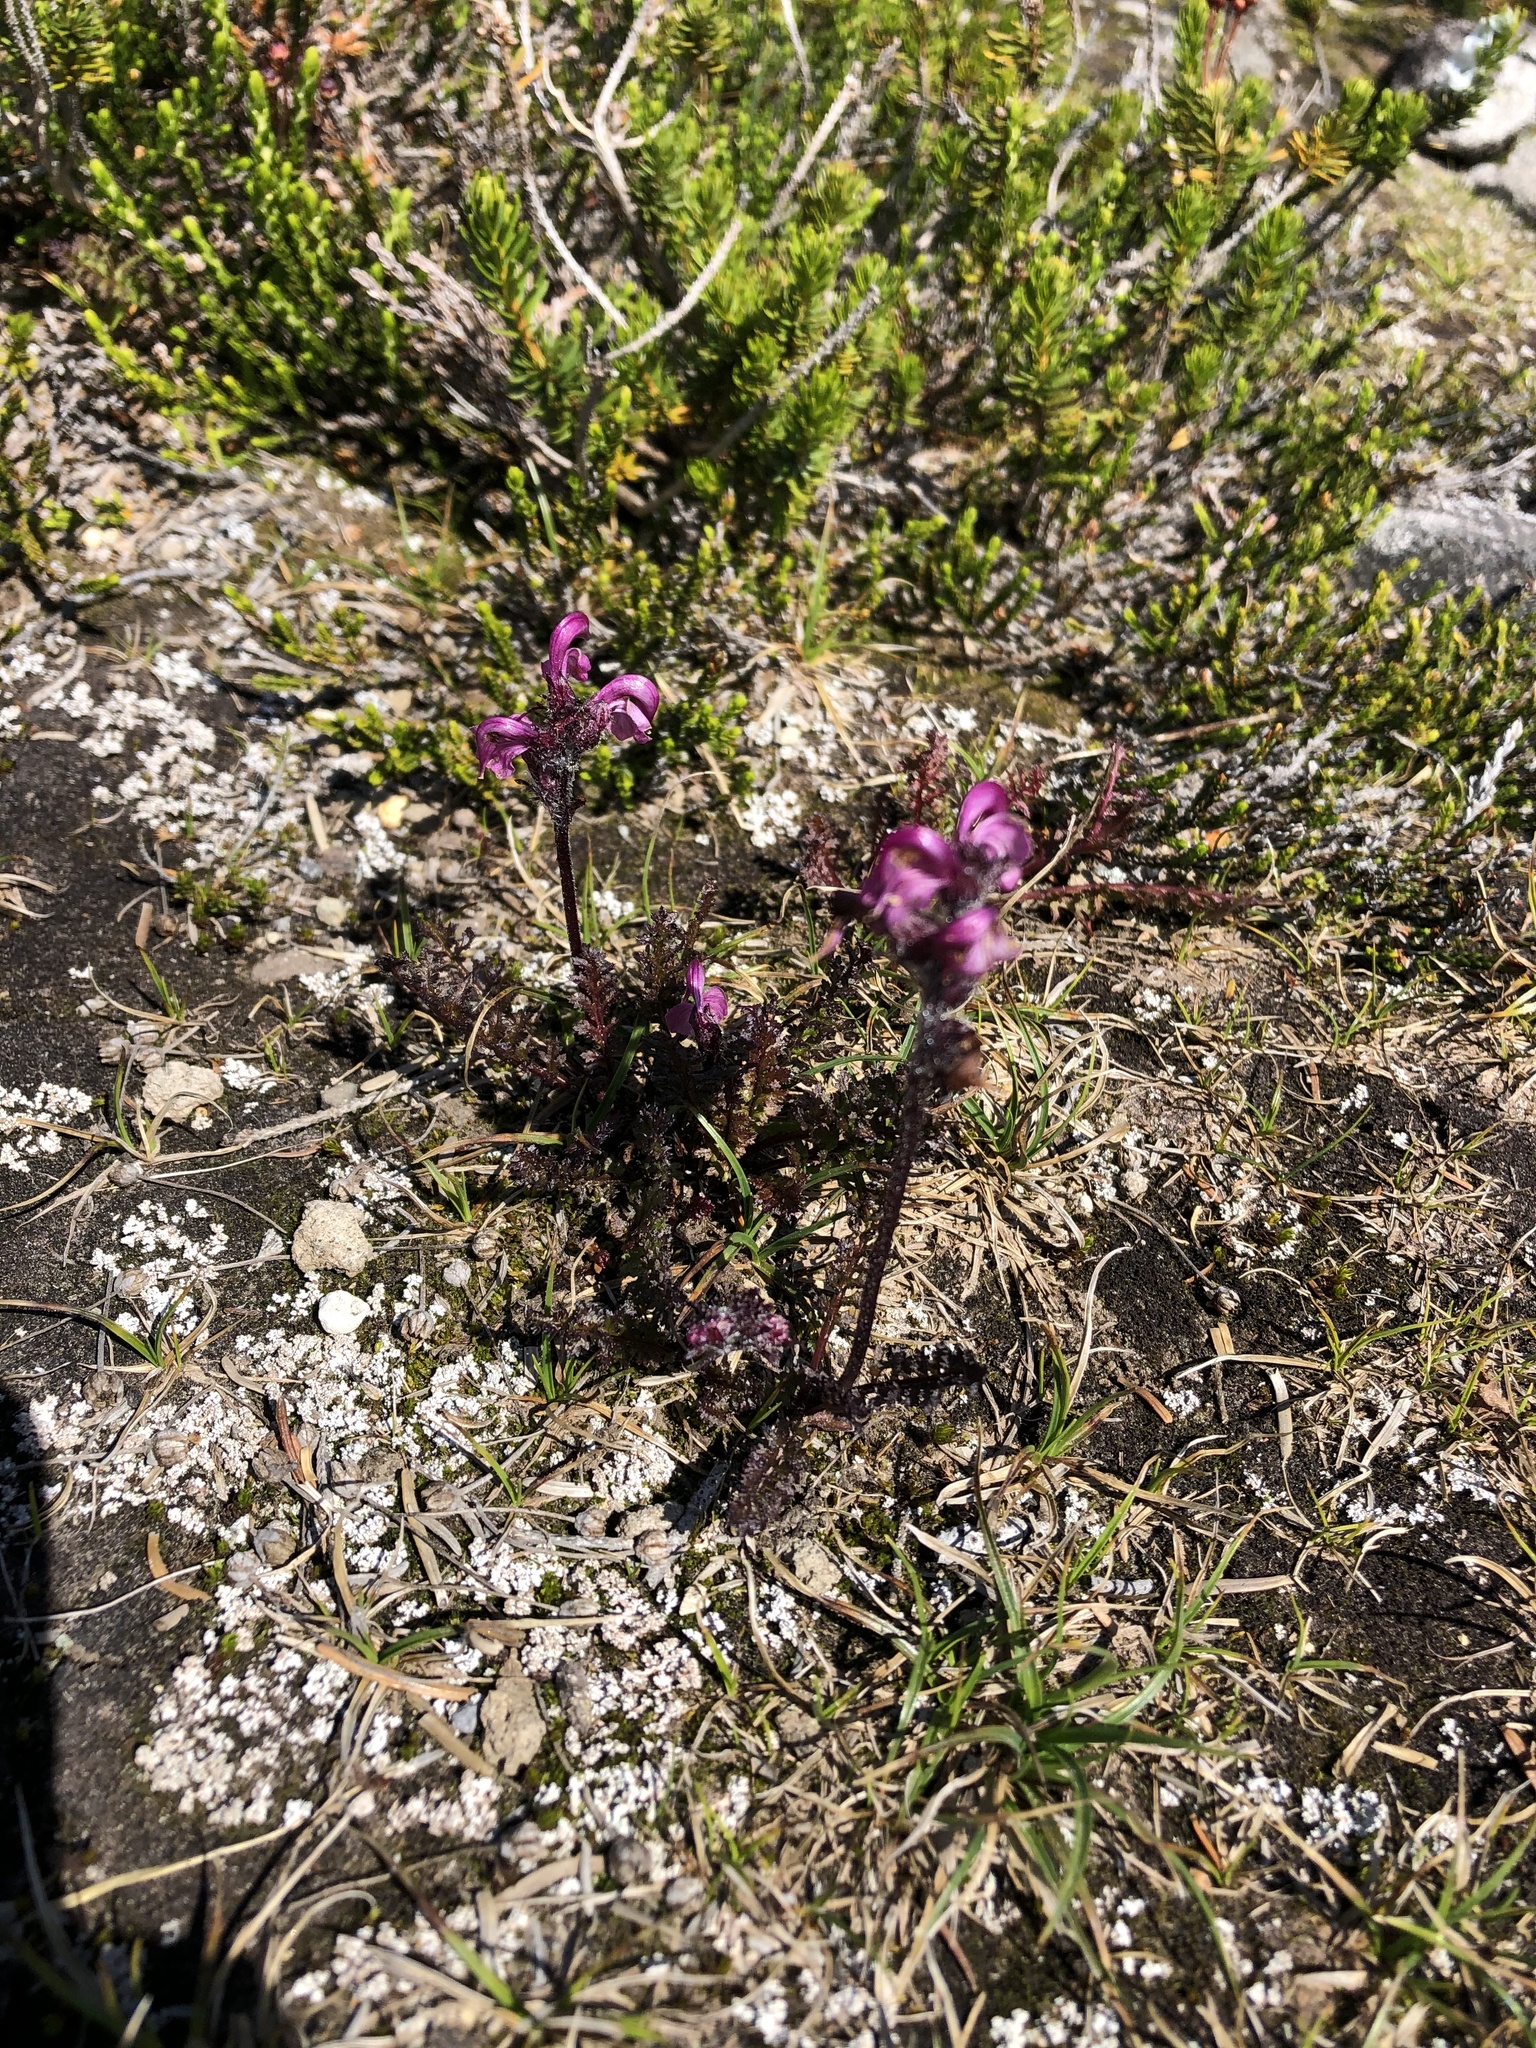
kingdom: Plantae
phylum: Tracheophyta
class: Magnoliopsida
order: Lamiales
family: Orobanchaceae
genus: Pedicularis
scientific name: Pedicularis ornithorhynchos
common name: Bird's-beak lousewort
